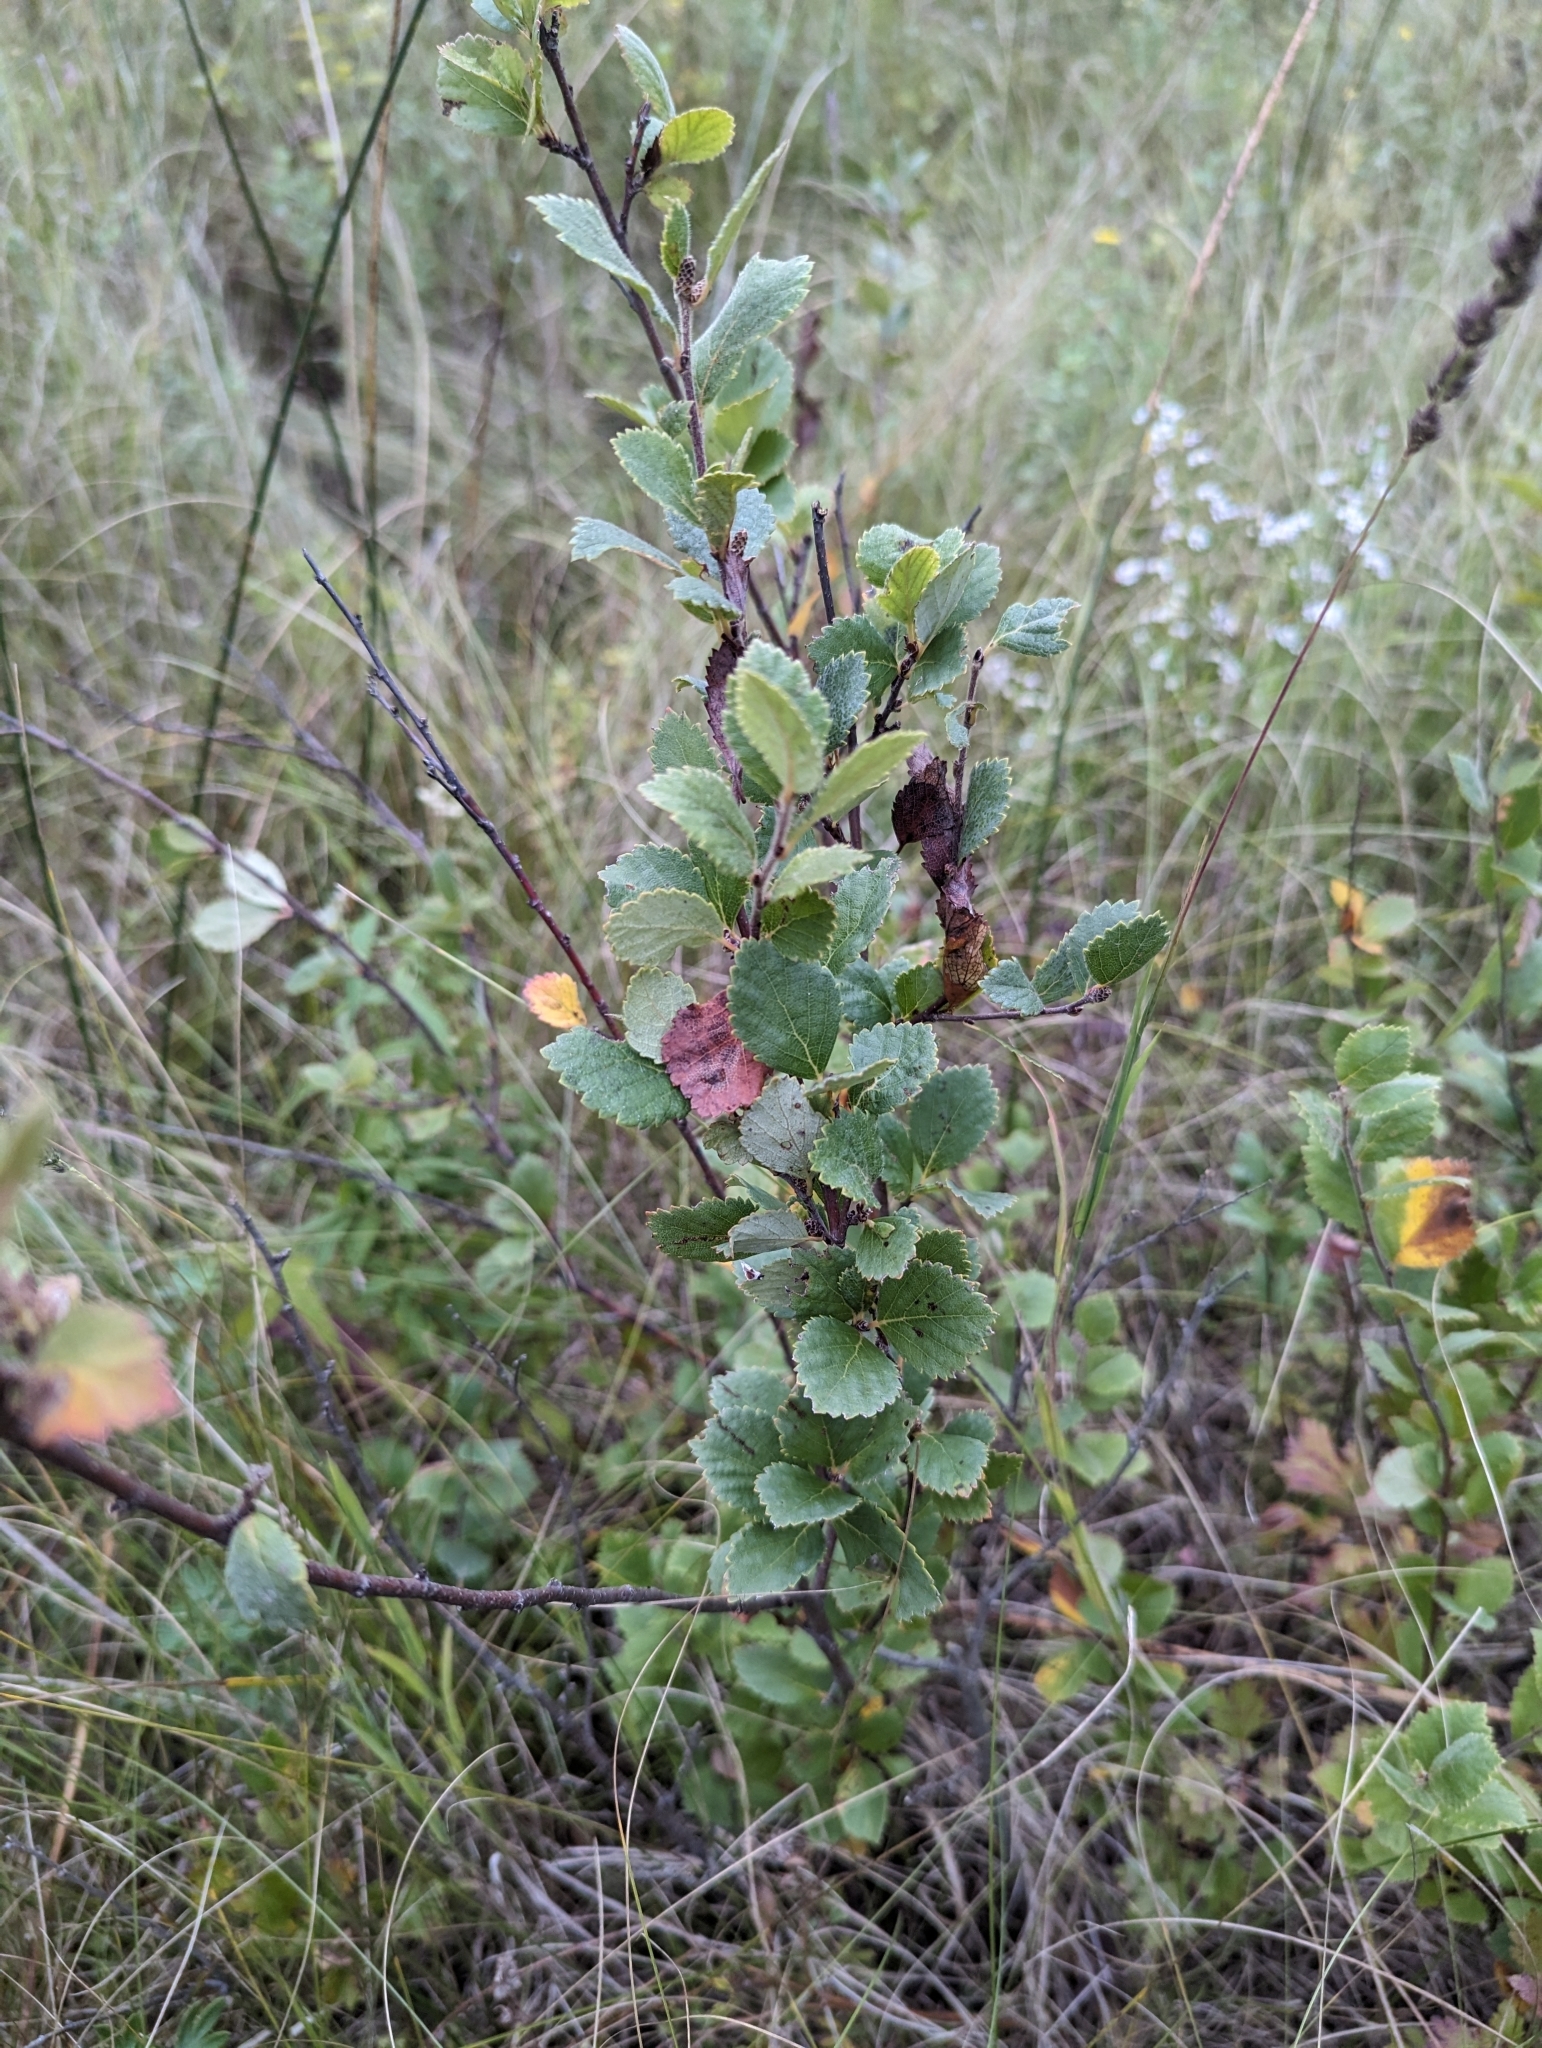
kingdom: Plantae
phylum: Tracheophyta
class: Magnoliopsida
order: Fagales
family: Betulaceae
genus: Betula
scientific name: Betula pumila
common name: Bog birch
